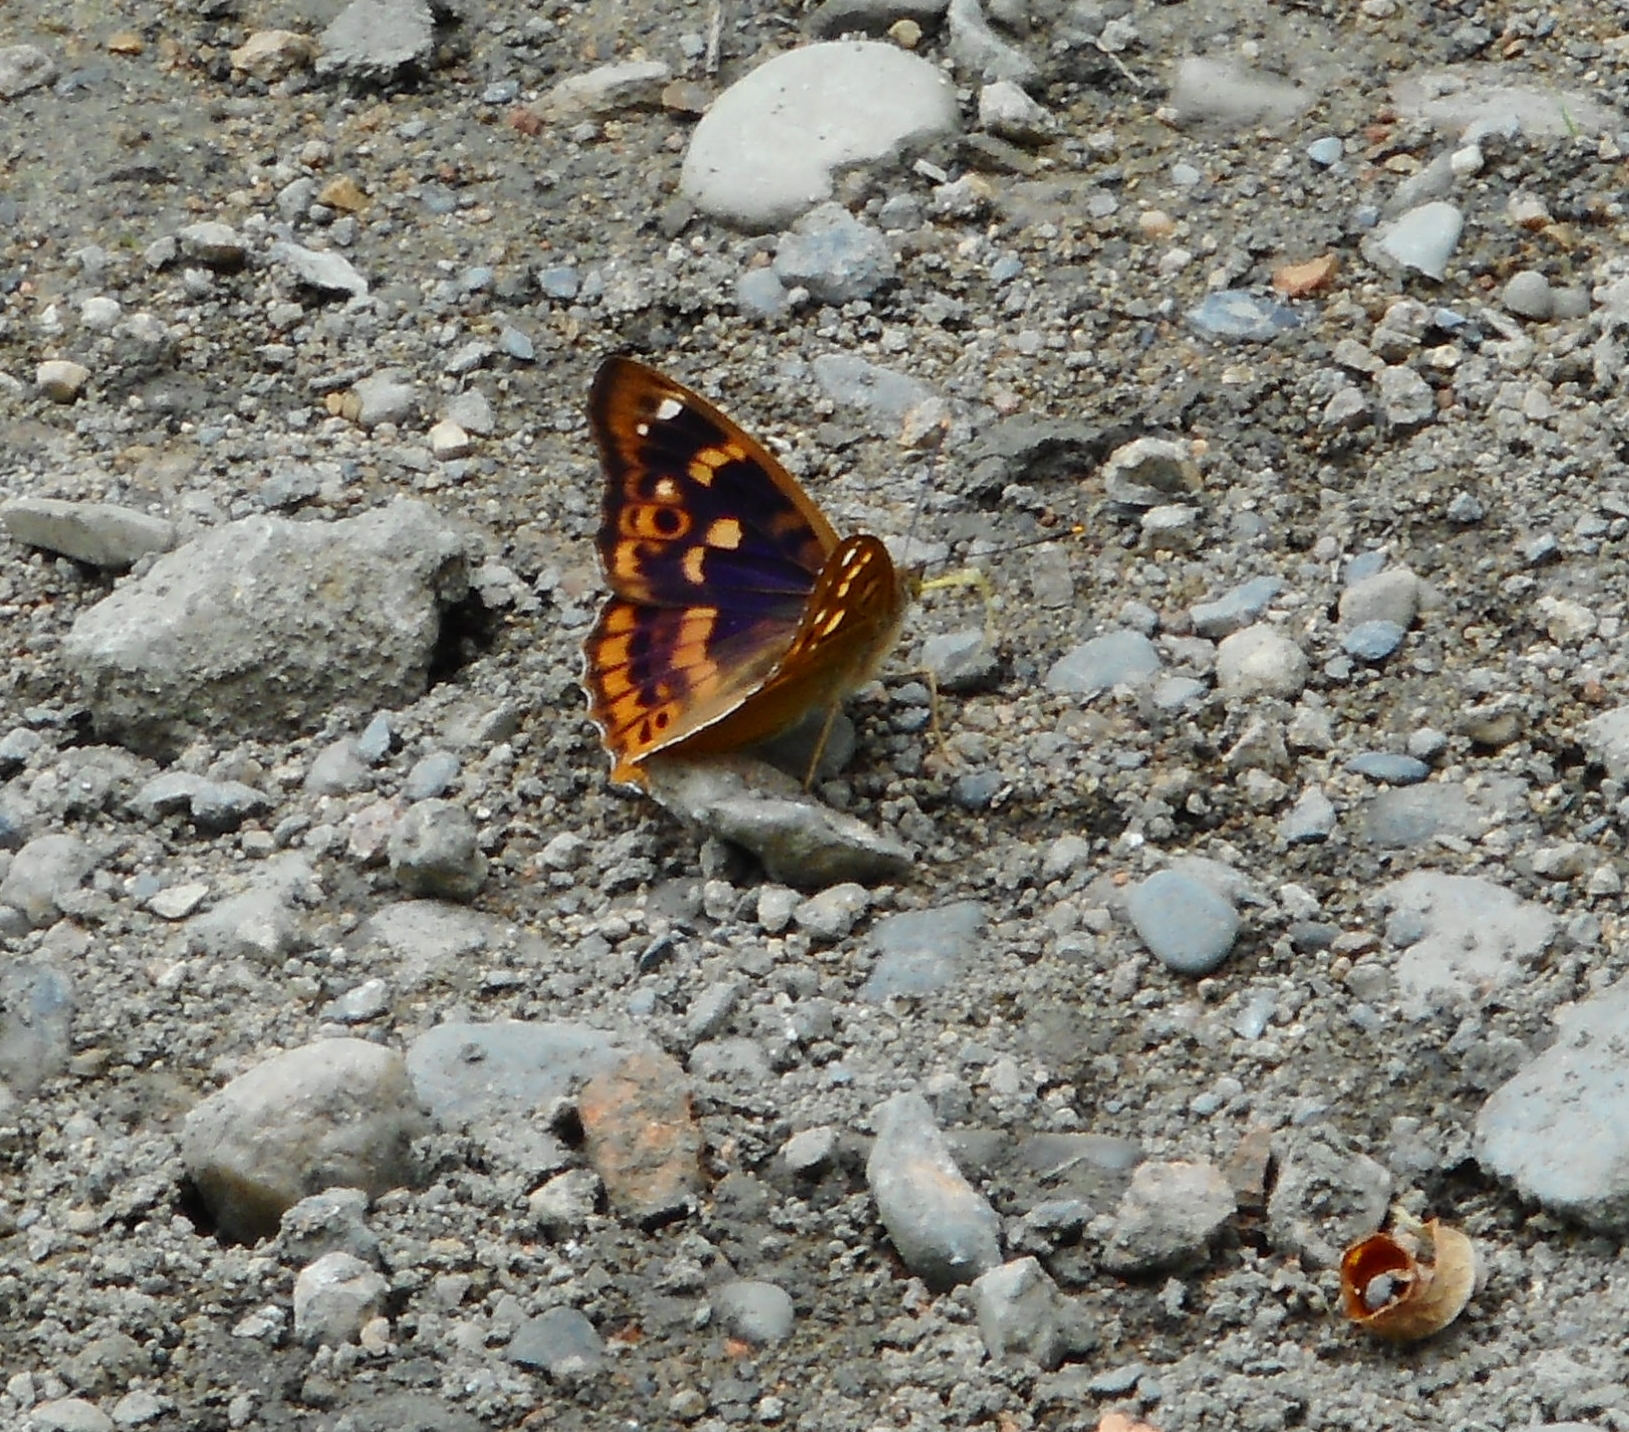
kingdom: Animalia
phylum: Arthropoda
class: Insecta
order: Lepidoptera
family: Nymphalidae
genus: Apatura
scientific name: Apatura ilia
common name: Lesser purple emperor
